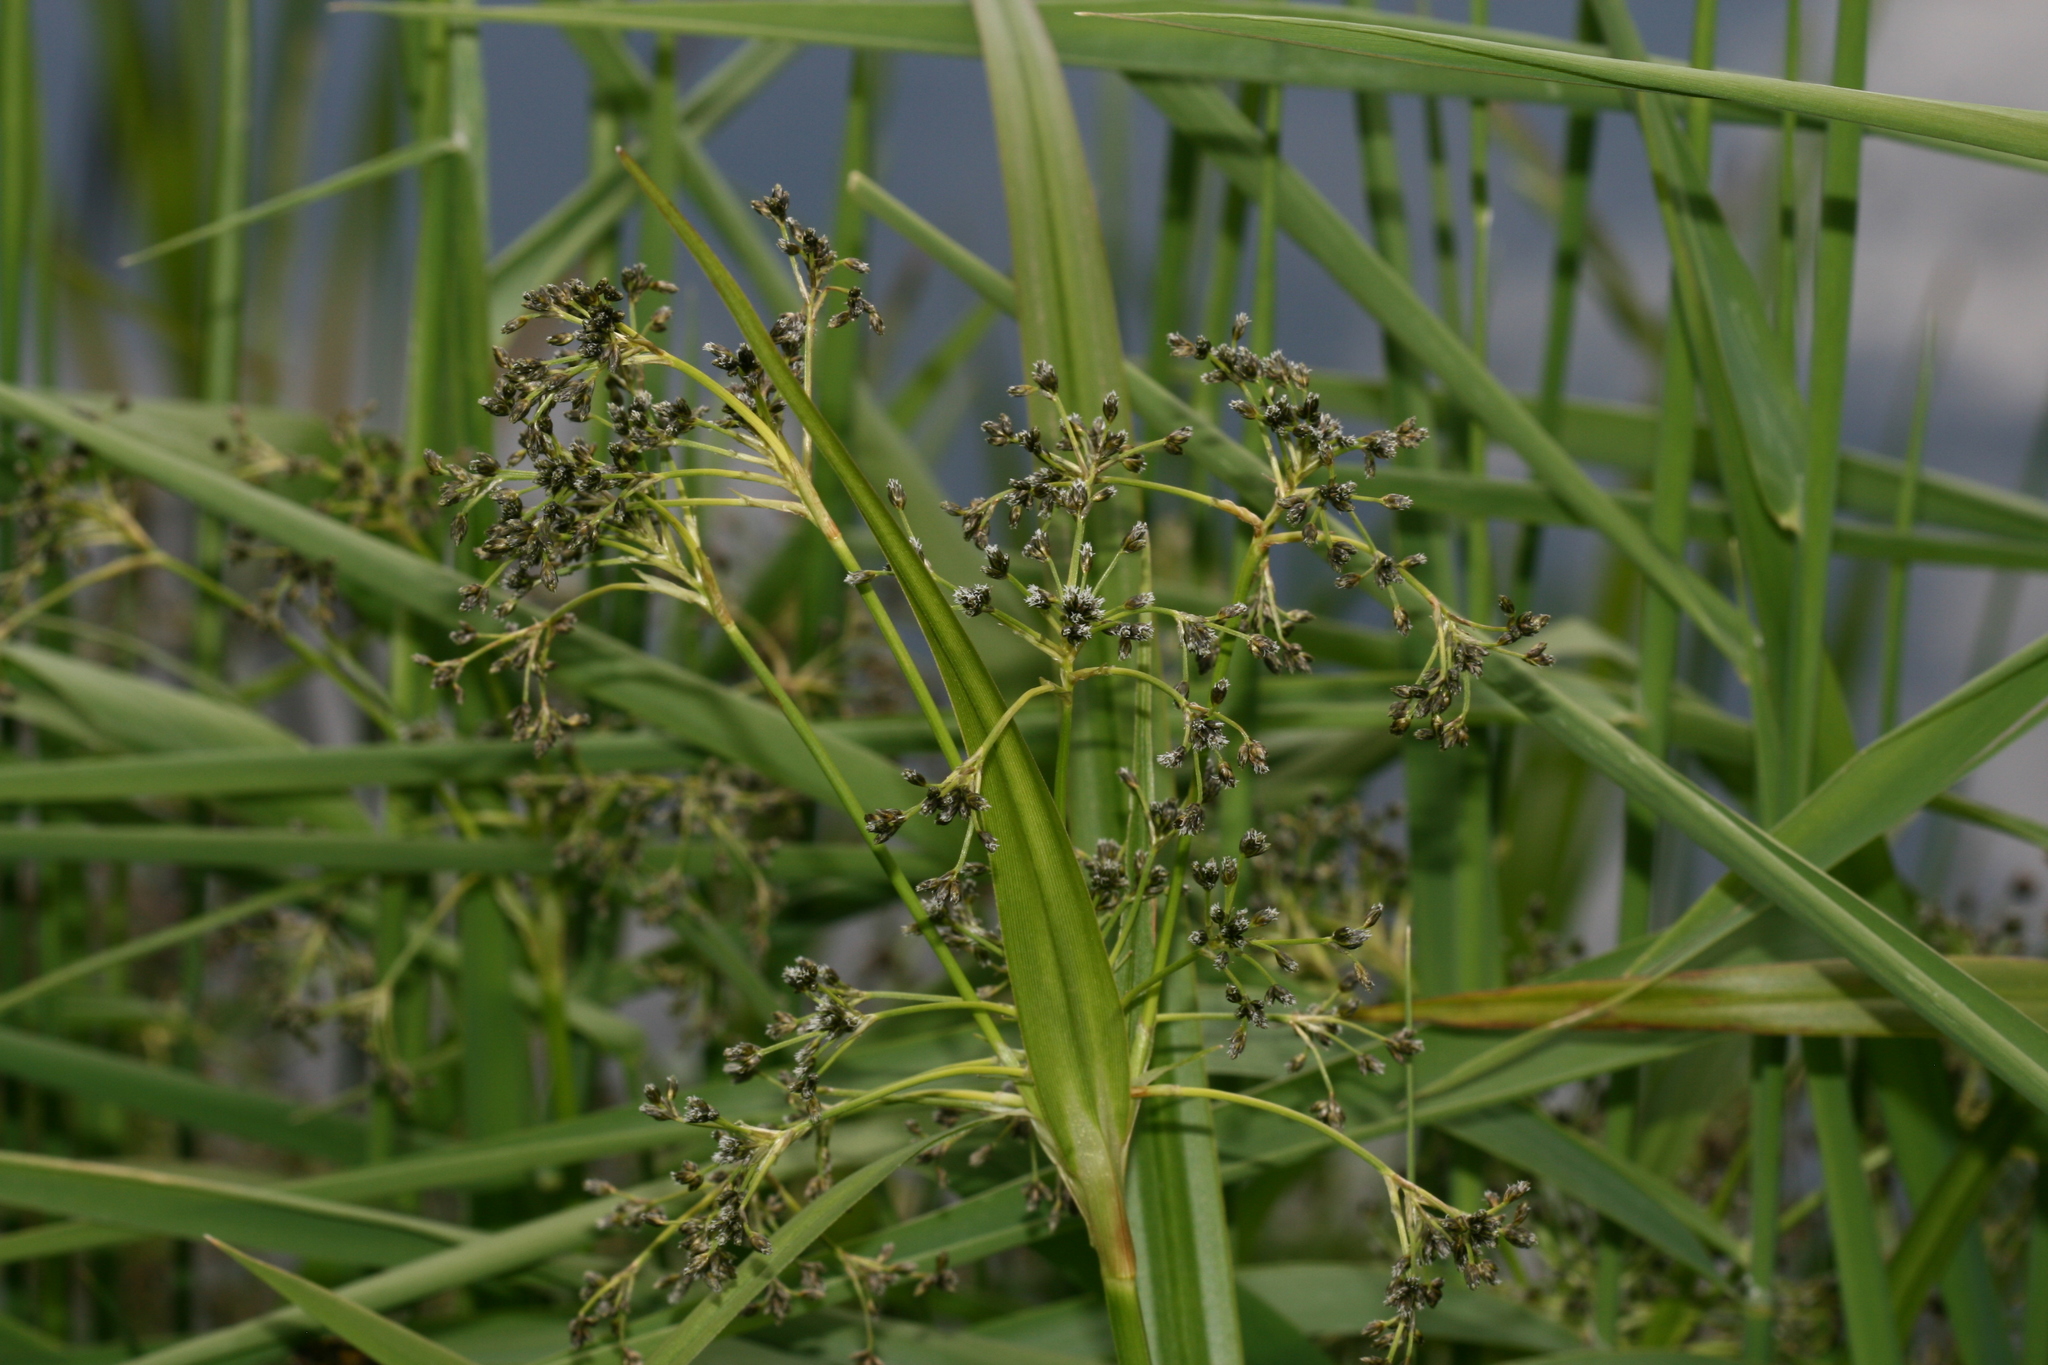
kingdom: Plantae
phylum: Tracheophyta
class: Liliopsida
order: Poales
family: Cyperaceae
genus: Scirpus
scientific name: Scirpus sylvaticus
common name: Wood club-rush
